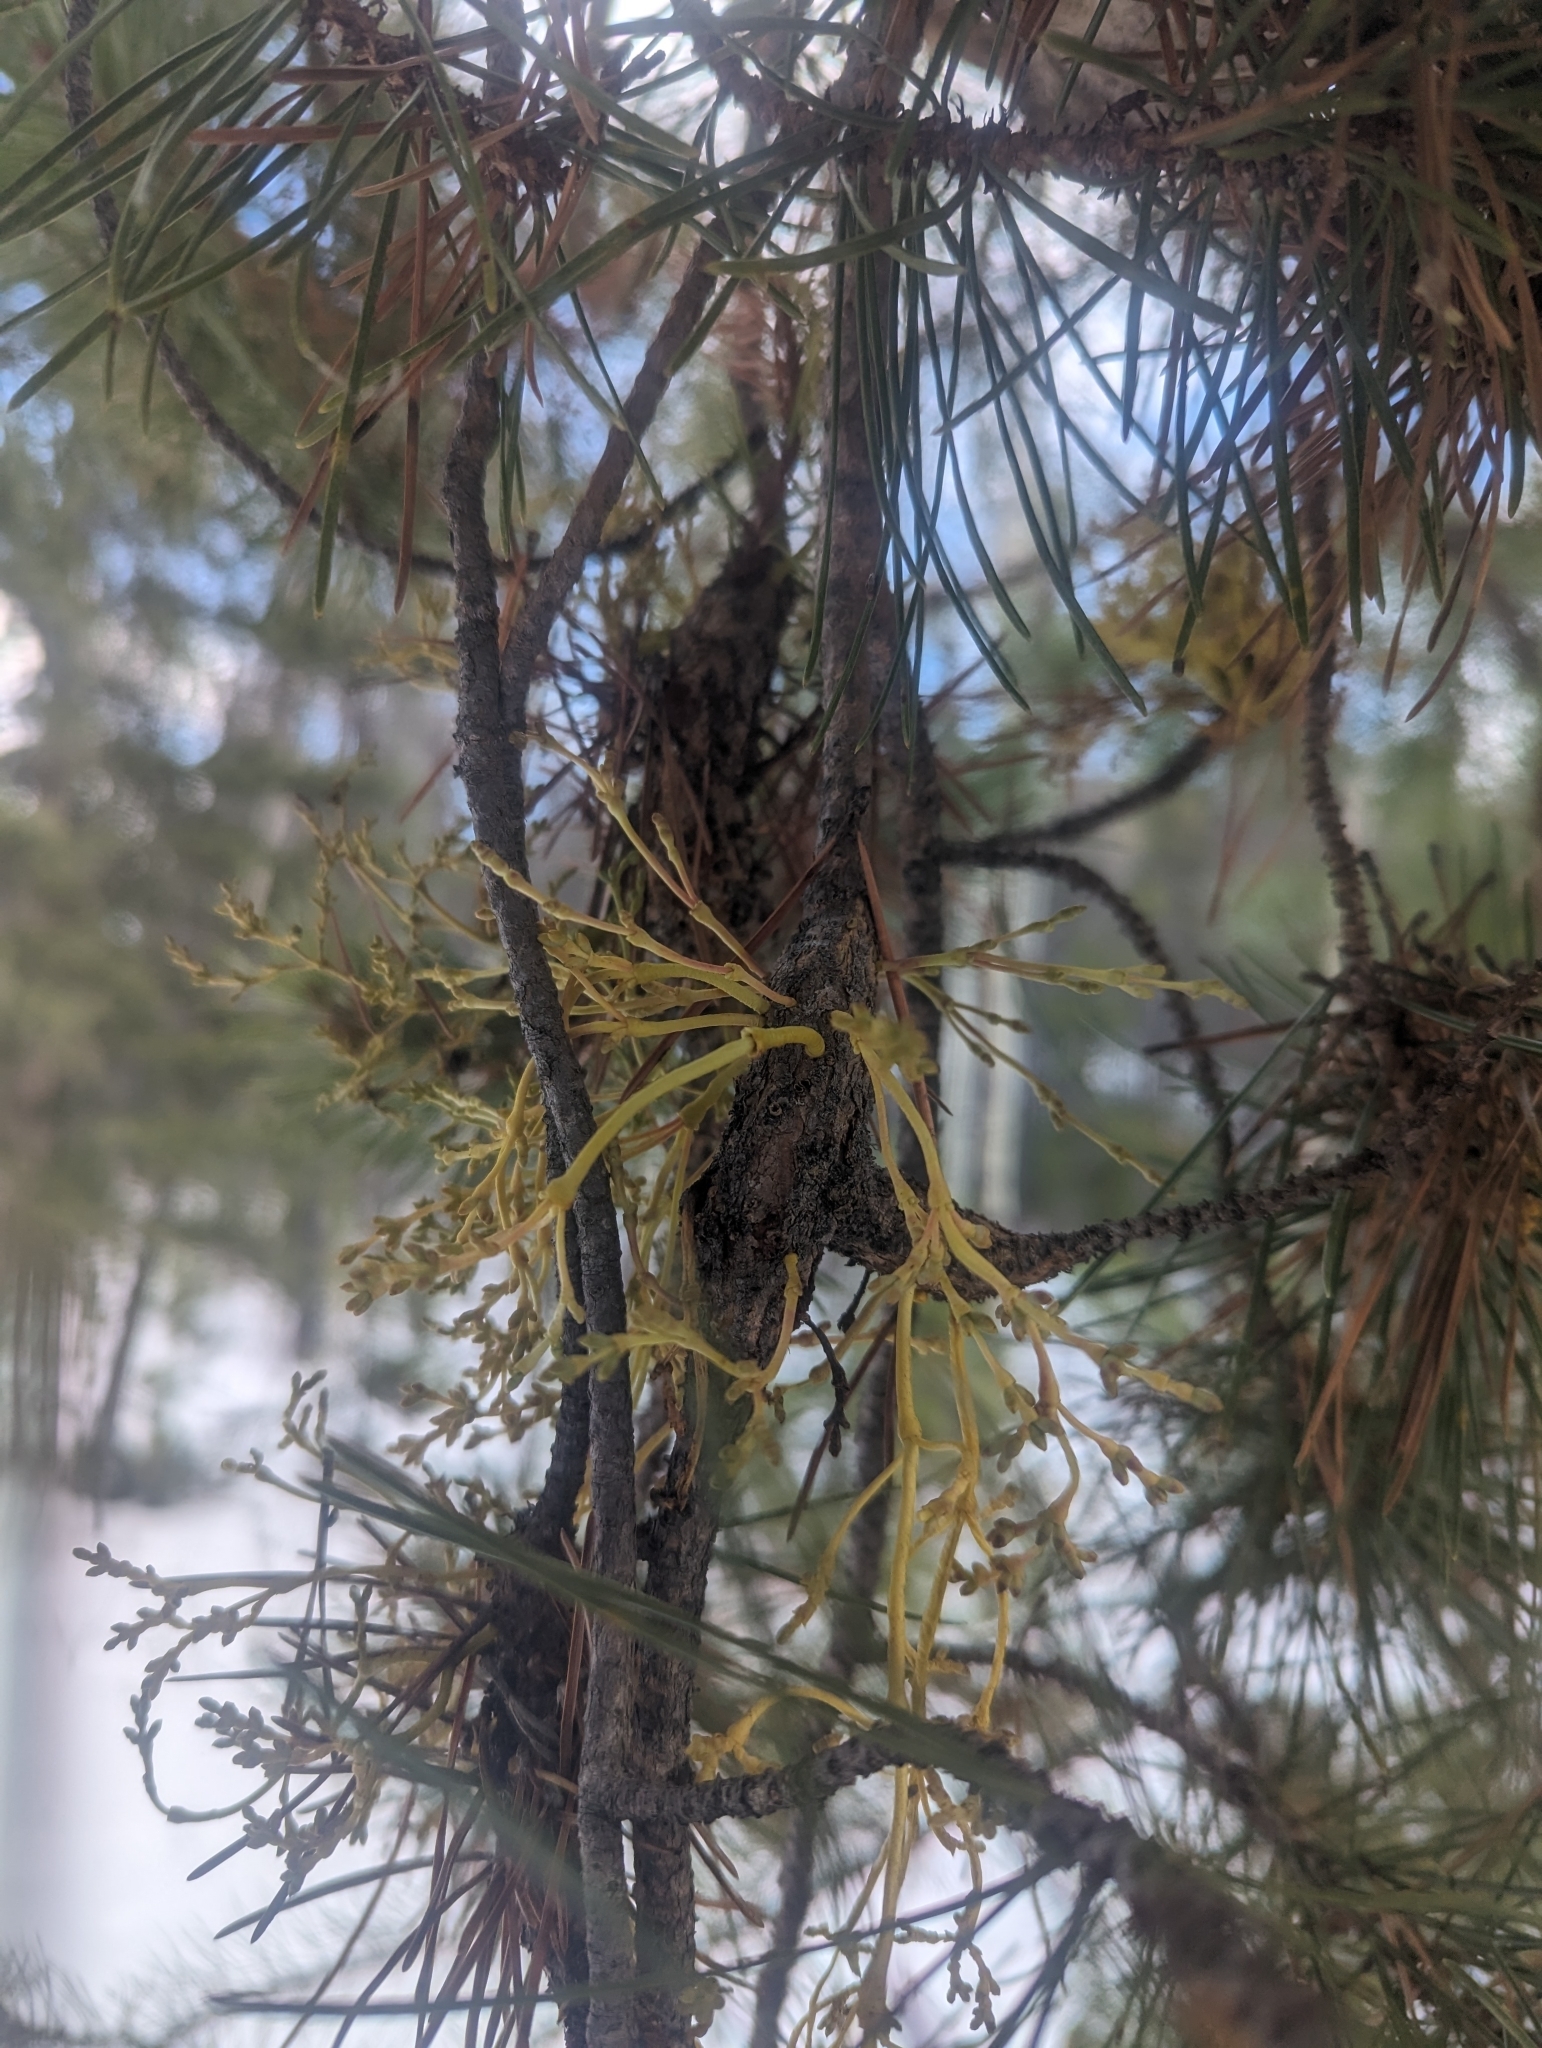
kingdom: Plantae
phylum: Tracheophyta
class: Magnoliopsida
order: Santalales
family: Viscaceae
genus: Arceuthobium
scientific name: Arceuthobium americanum
